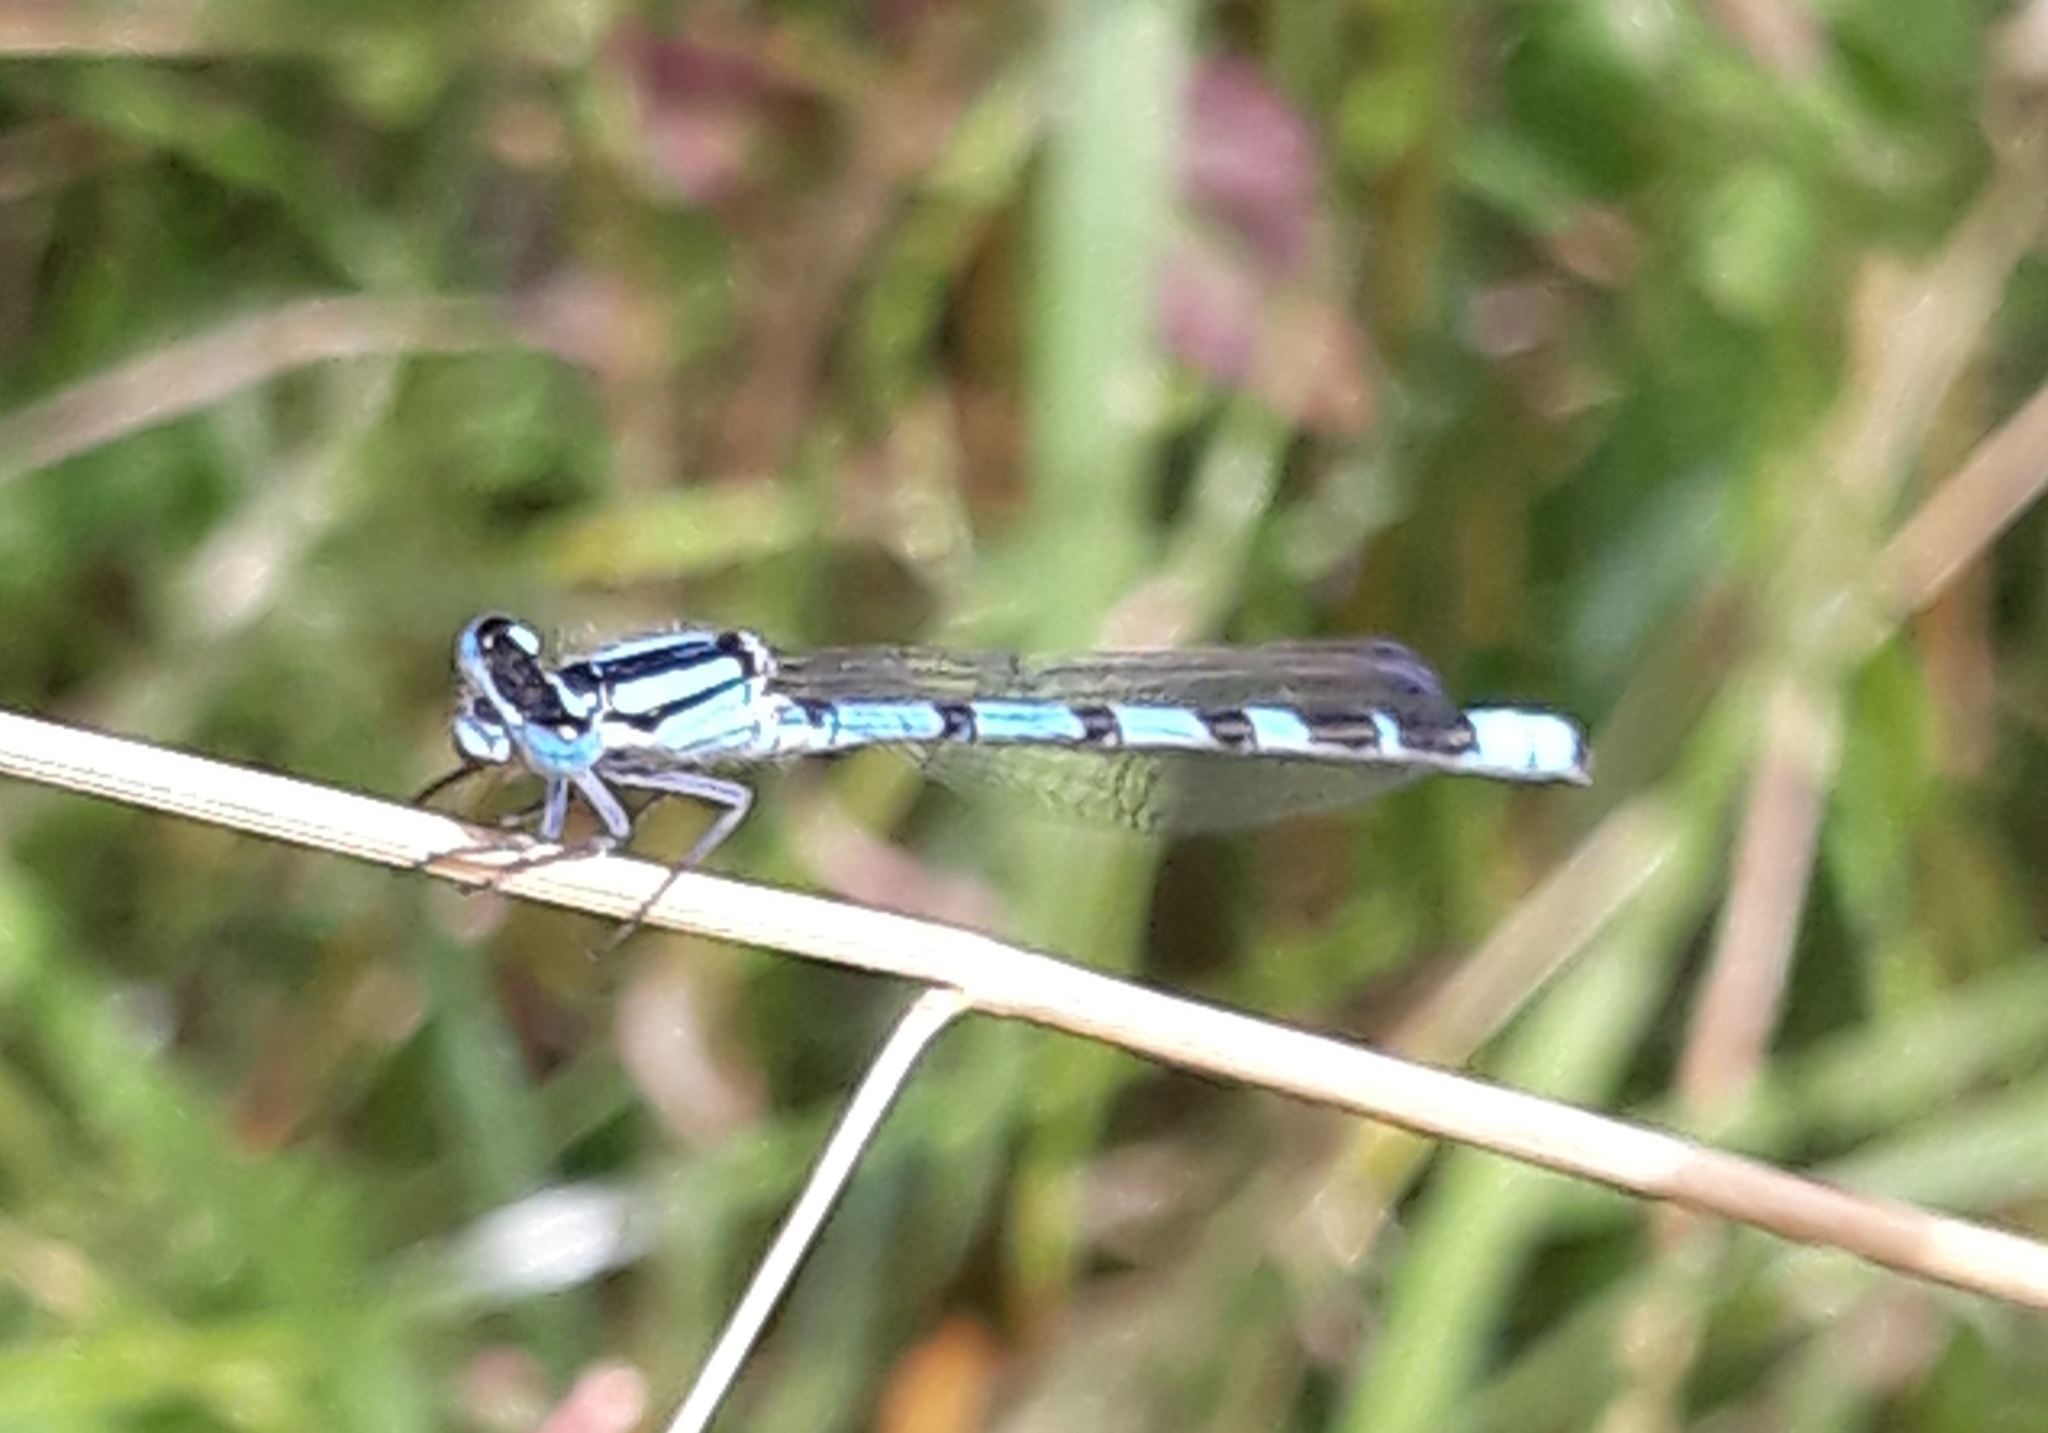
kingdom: Animalia
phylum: Arthropoda
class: Insecta
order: Odonata
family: Coenagrionidae
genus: Enallagma
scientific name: Enallagma cyathigerum
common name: Common blue damselfly
